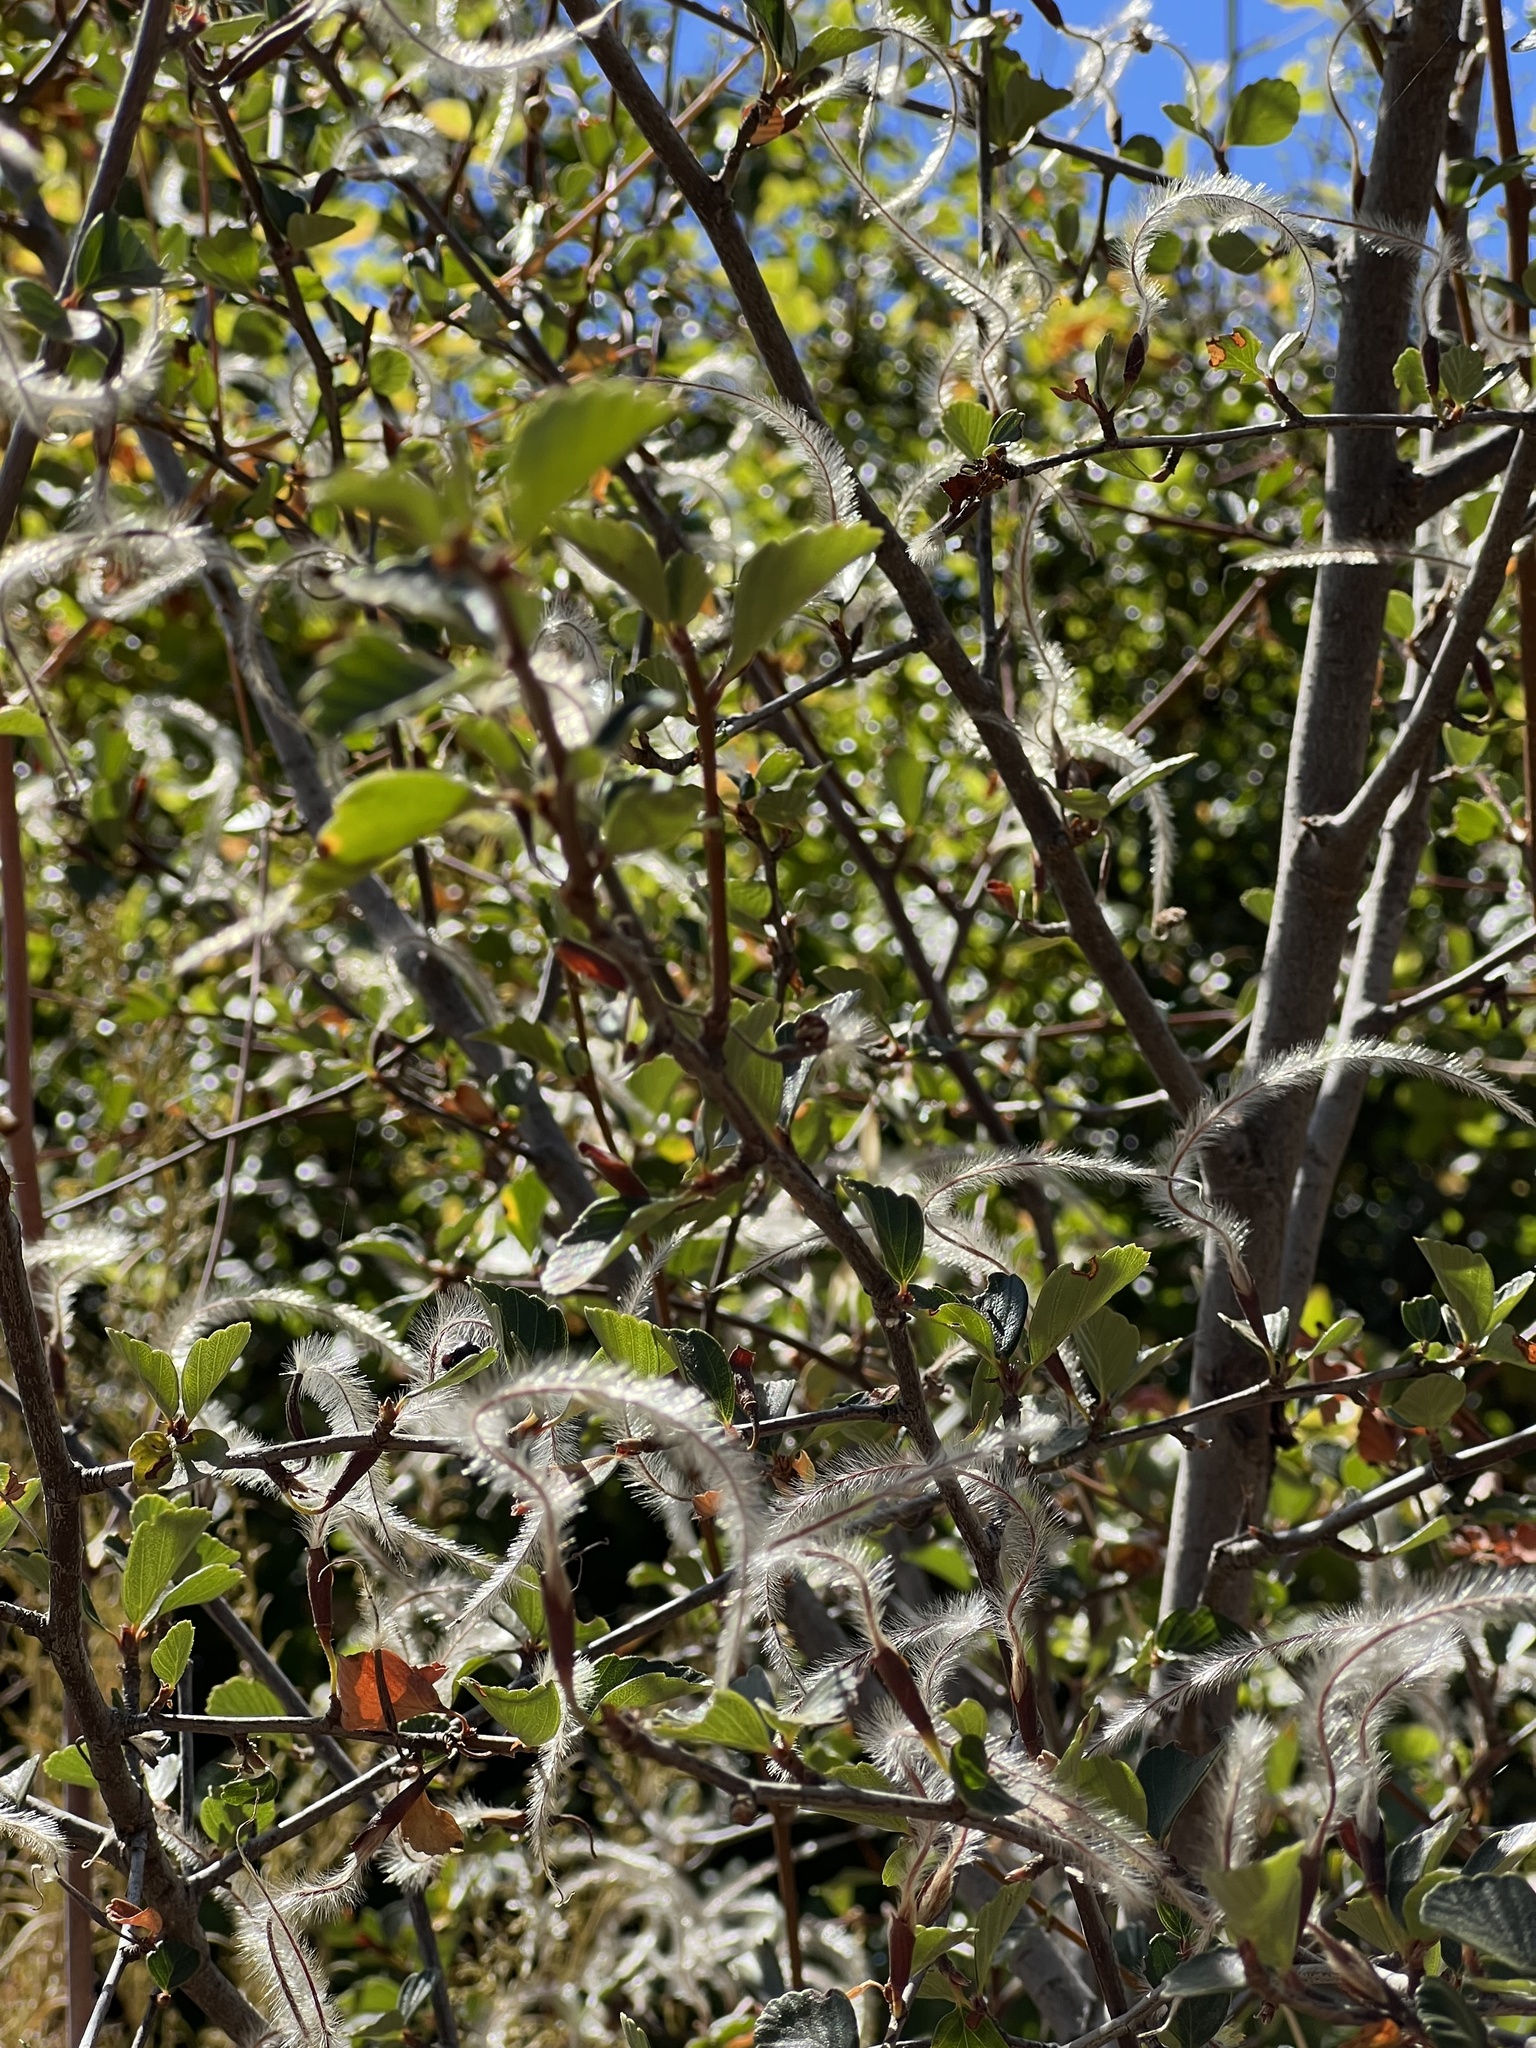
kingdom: Plantae
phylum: Tracheophyta
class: Magnoliopsida
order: Rosales
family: Rosaceae
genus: Cercocarpus
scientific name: Cercocarpus betuloides
